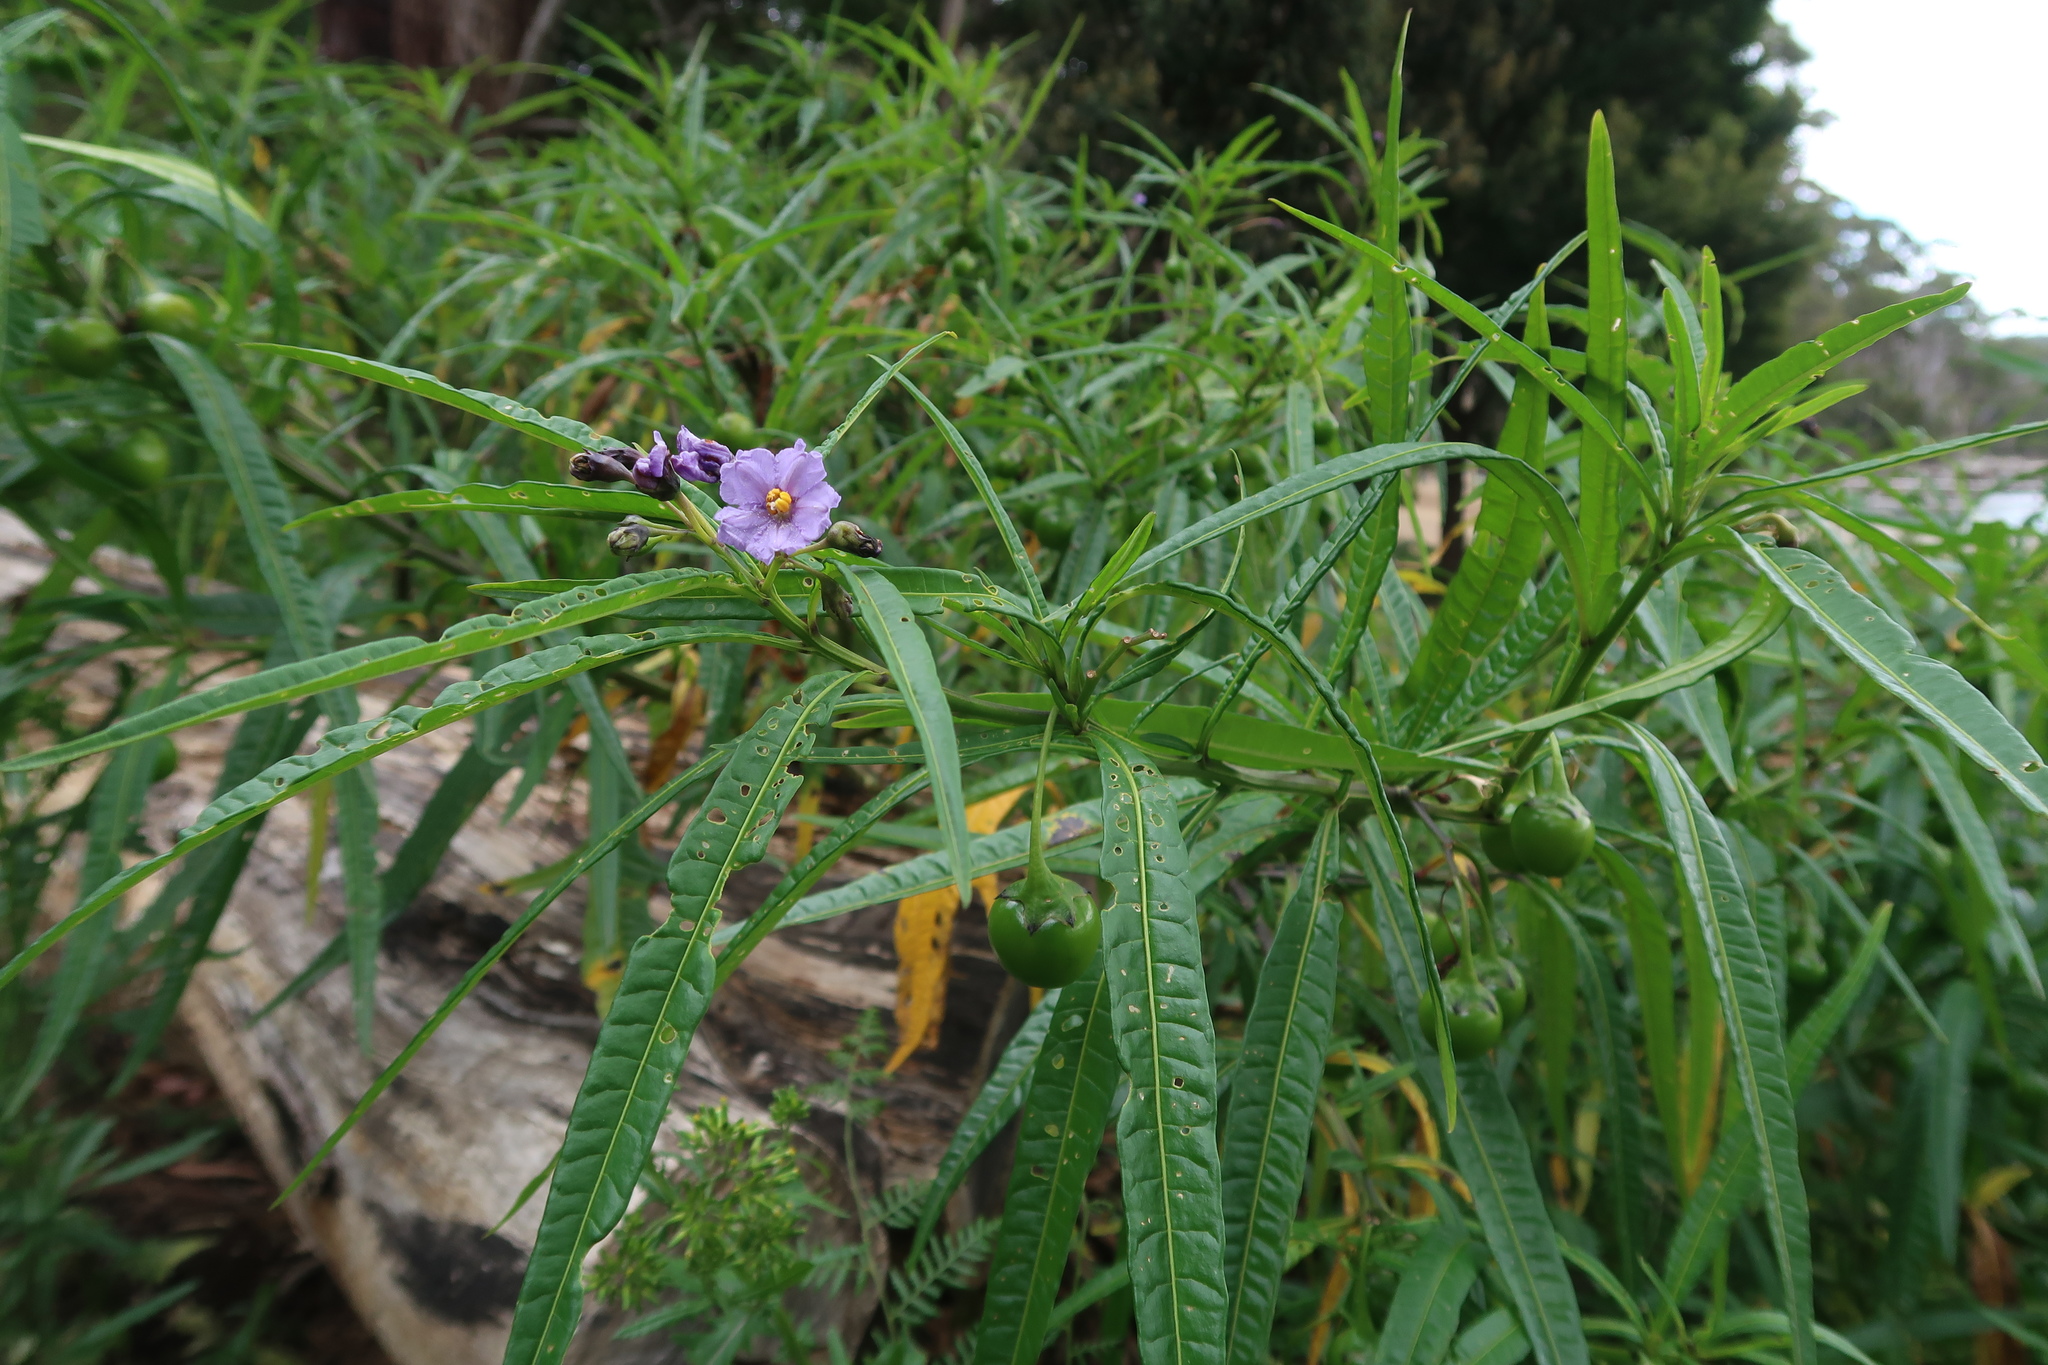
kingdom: Plantae
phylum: Tracheophyta
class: Magnoliopsida
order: Solanales
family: Solanaceae
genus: Solanum
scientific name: Solanum vescum
